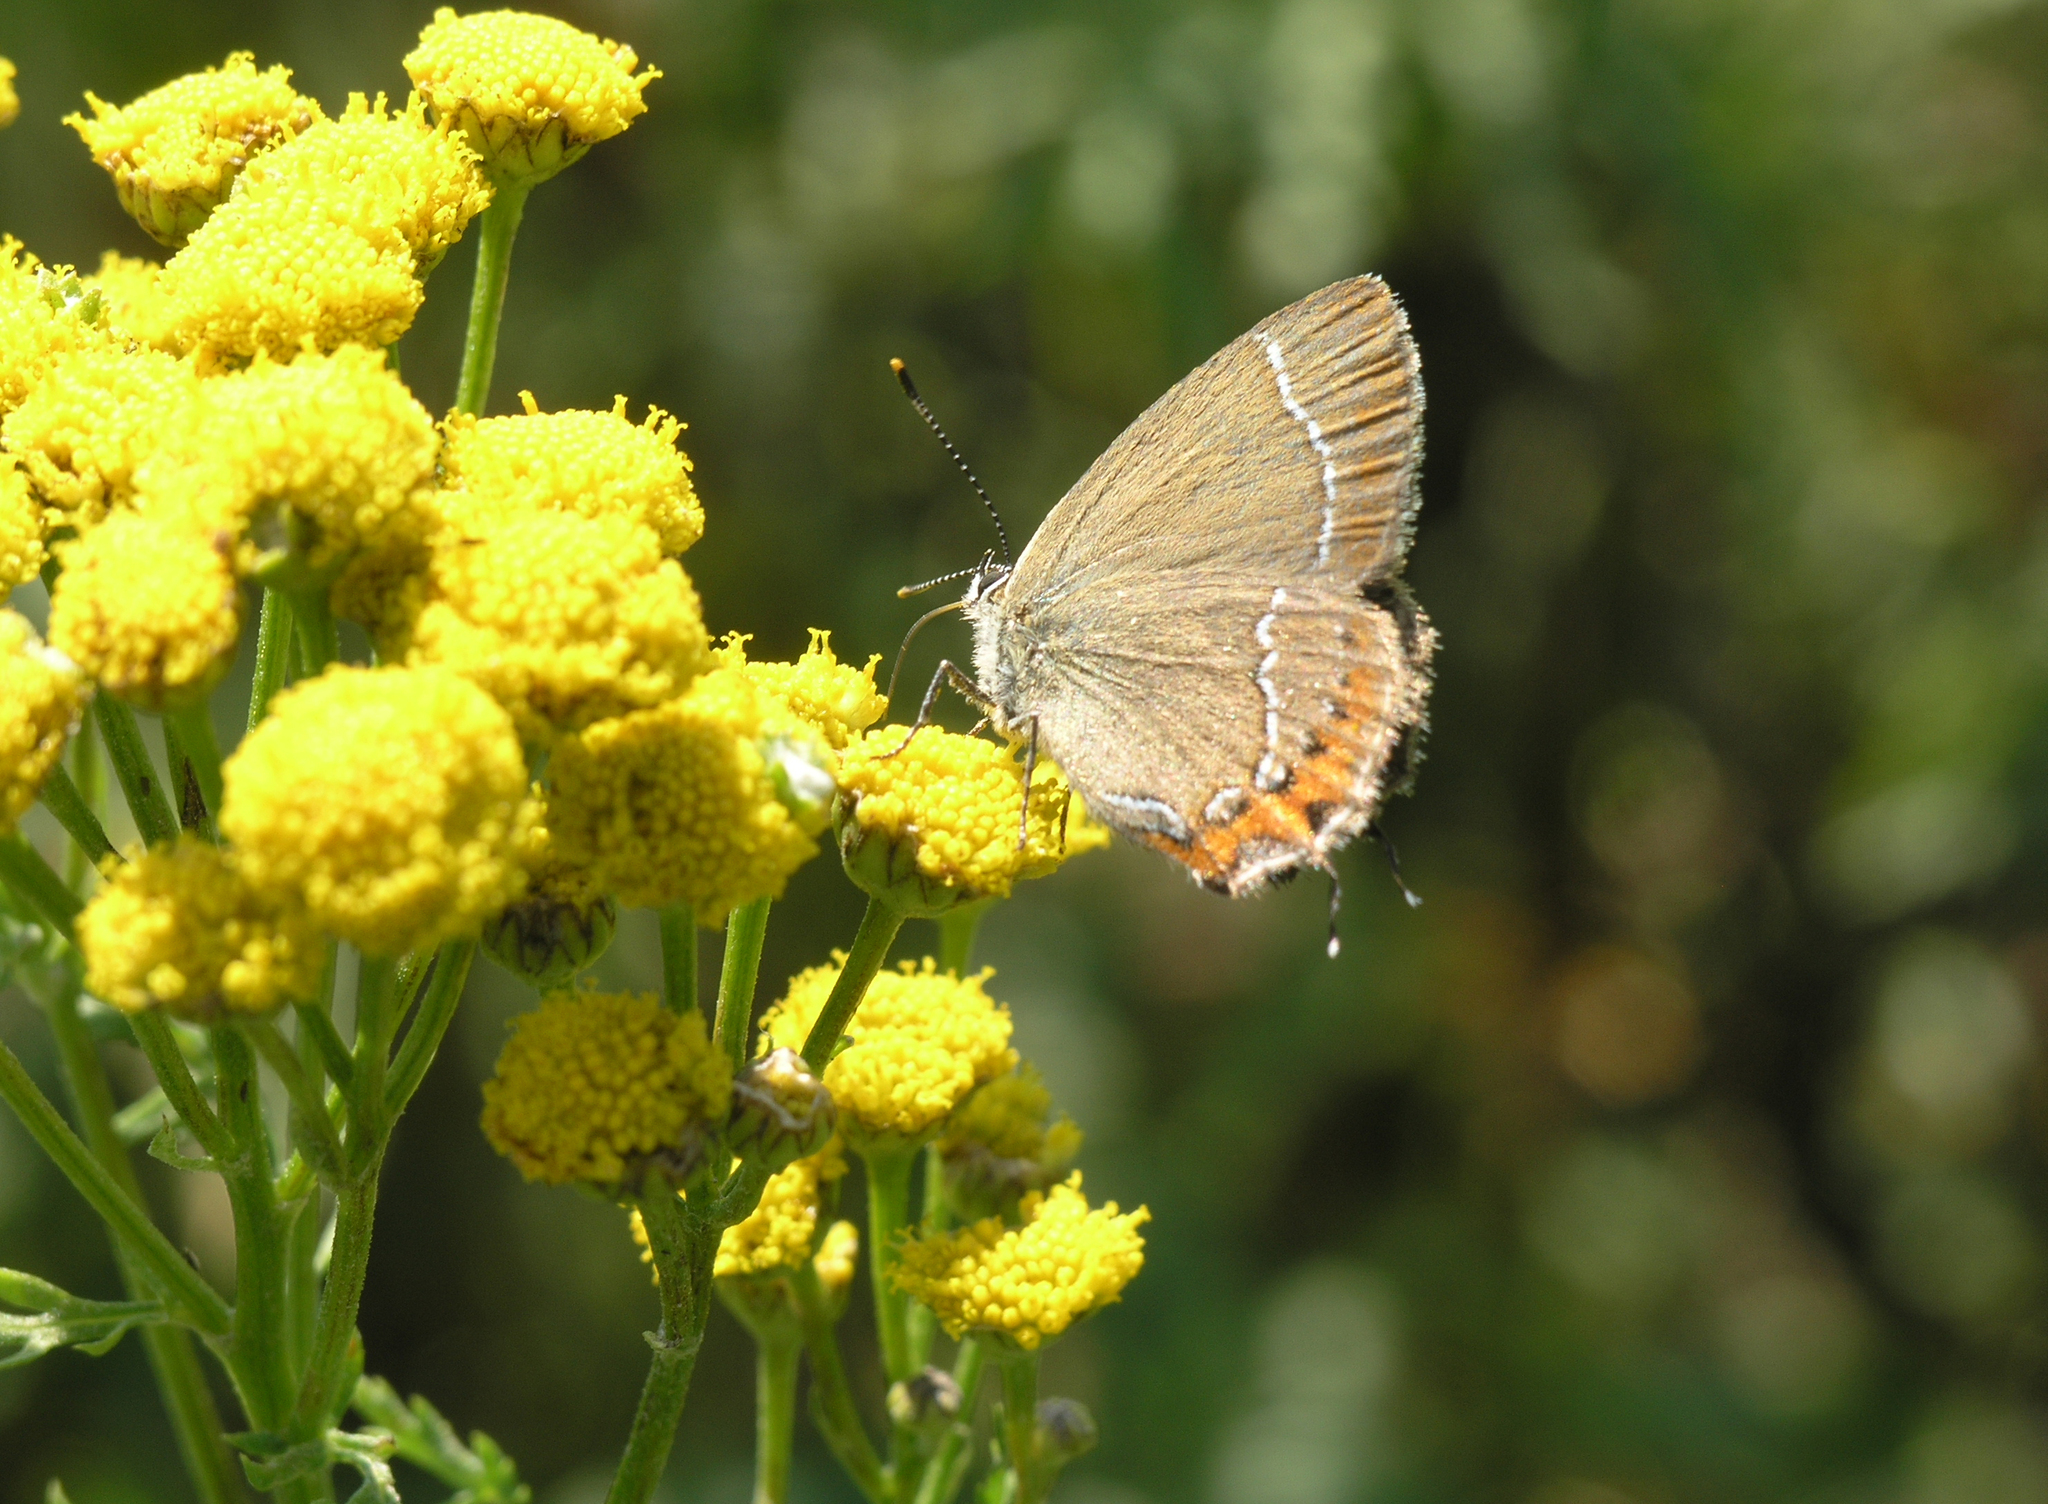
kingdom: Animalia
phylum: Arthropoda
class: Insecta
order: Lepidoptera
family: Lycaenidae
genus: Satyrium
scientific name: Satyrium prunoides
